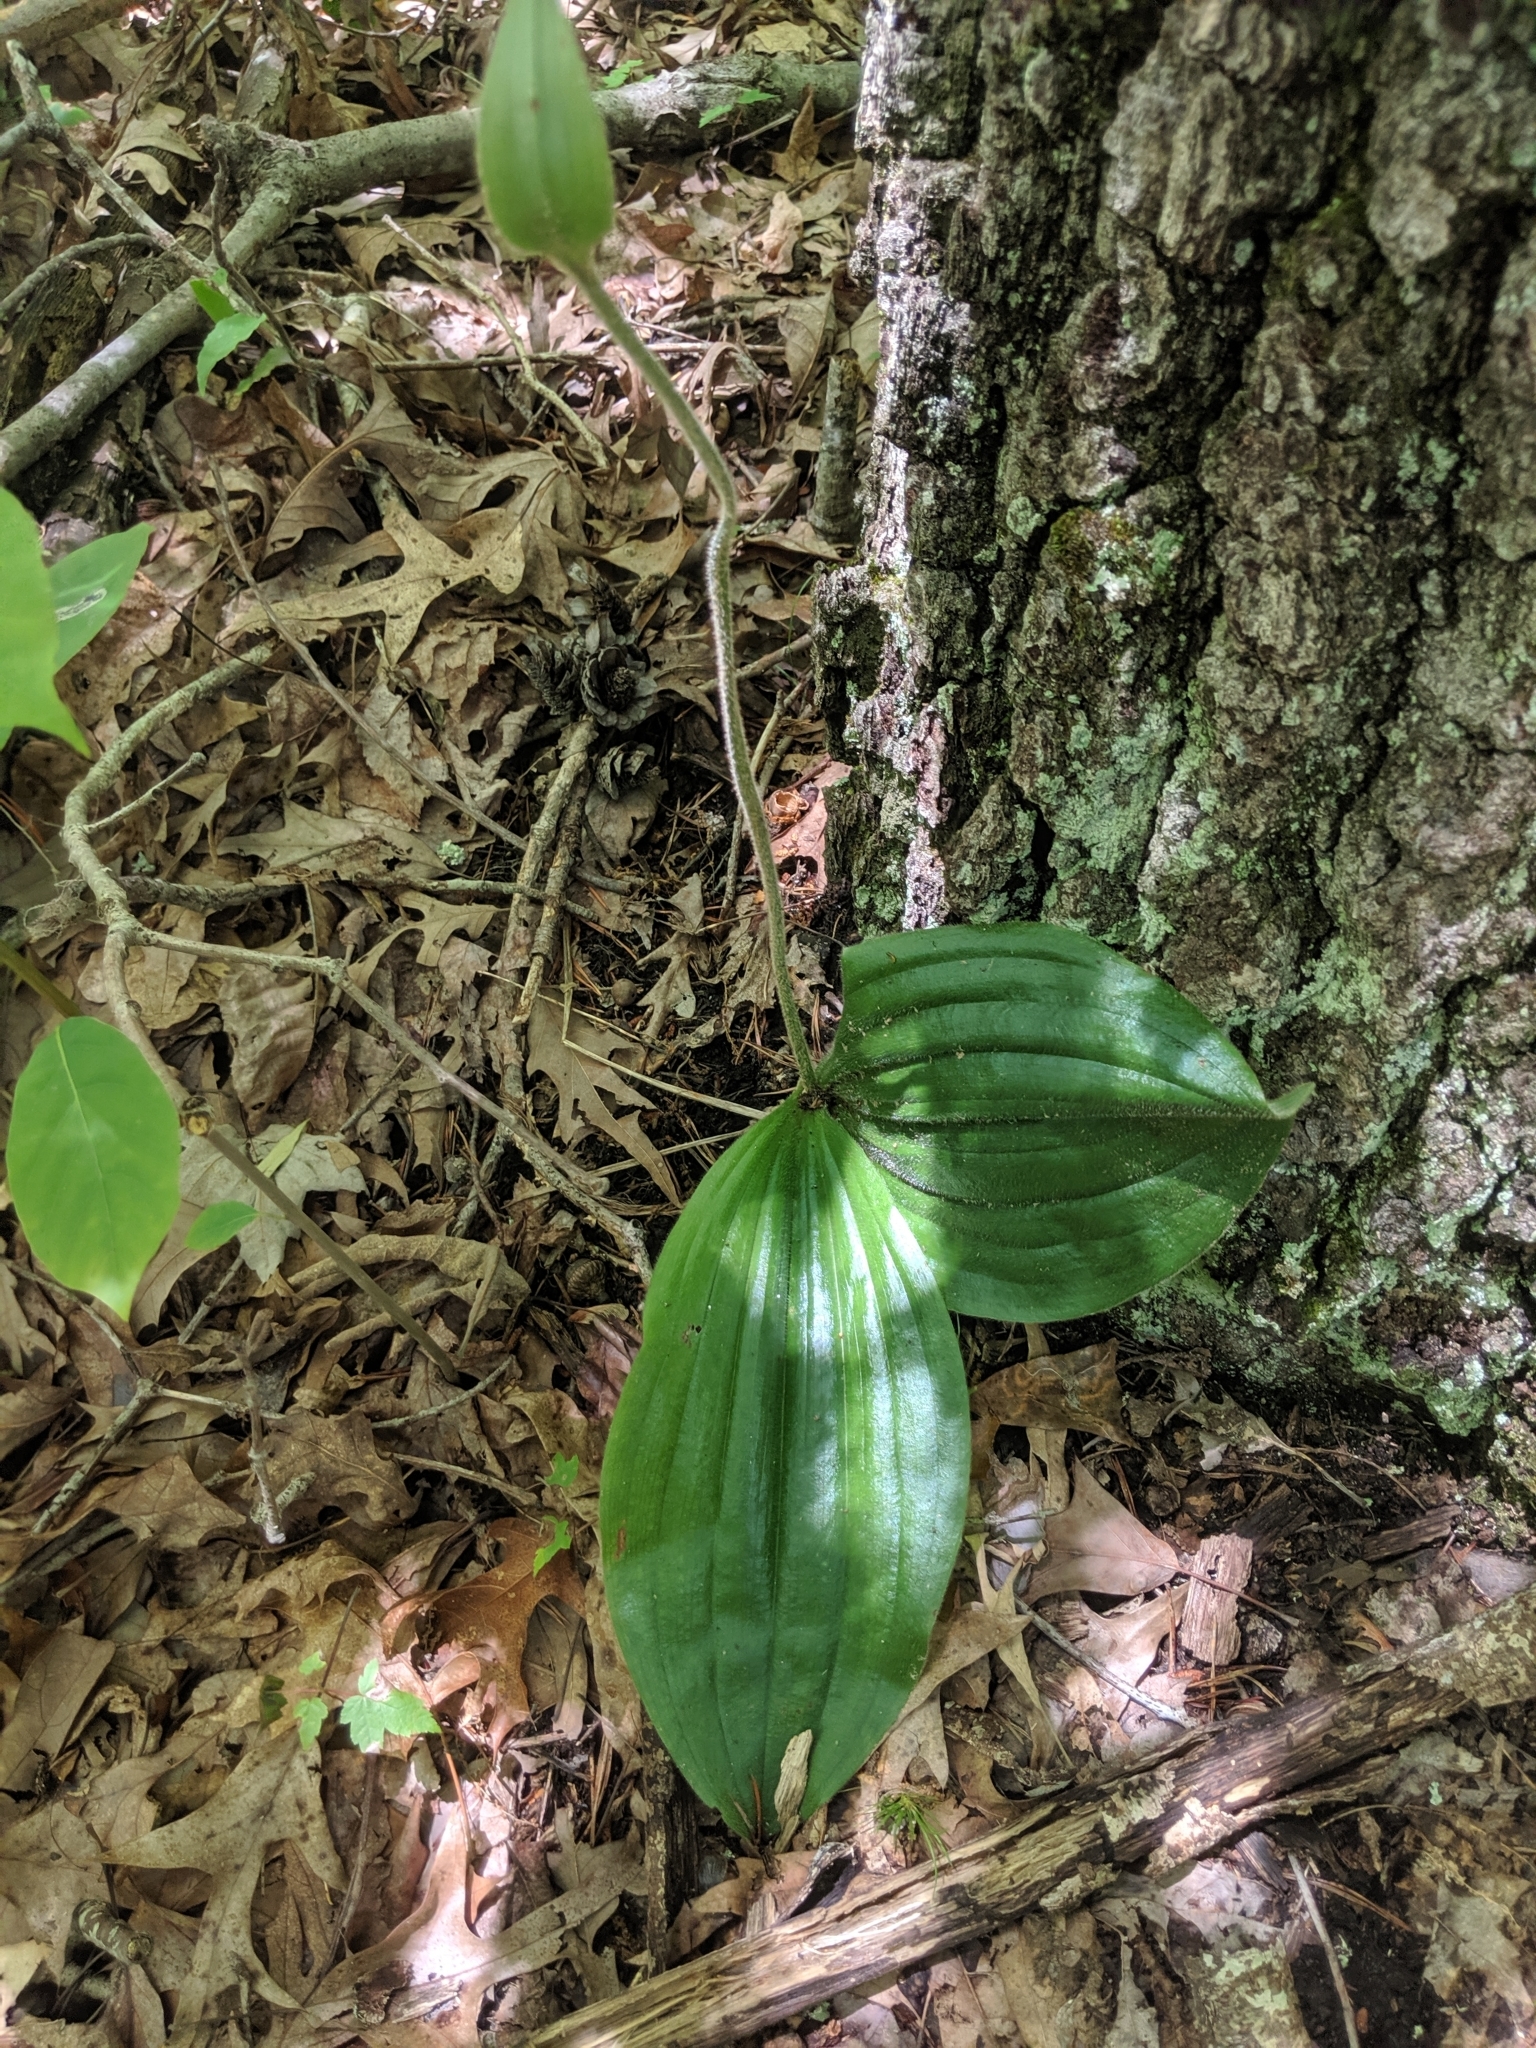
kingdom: Plantae
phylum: Tracheophyta
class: Liliopsida
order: Asparagales
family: Orchidaceae
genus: Cypripedium
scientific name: Cypripedium acaule
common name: Pink lady's-slipper
